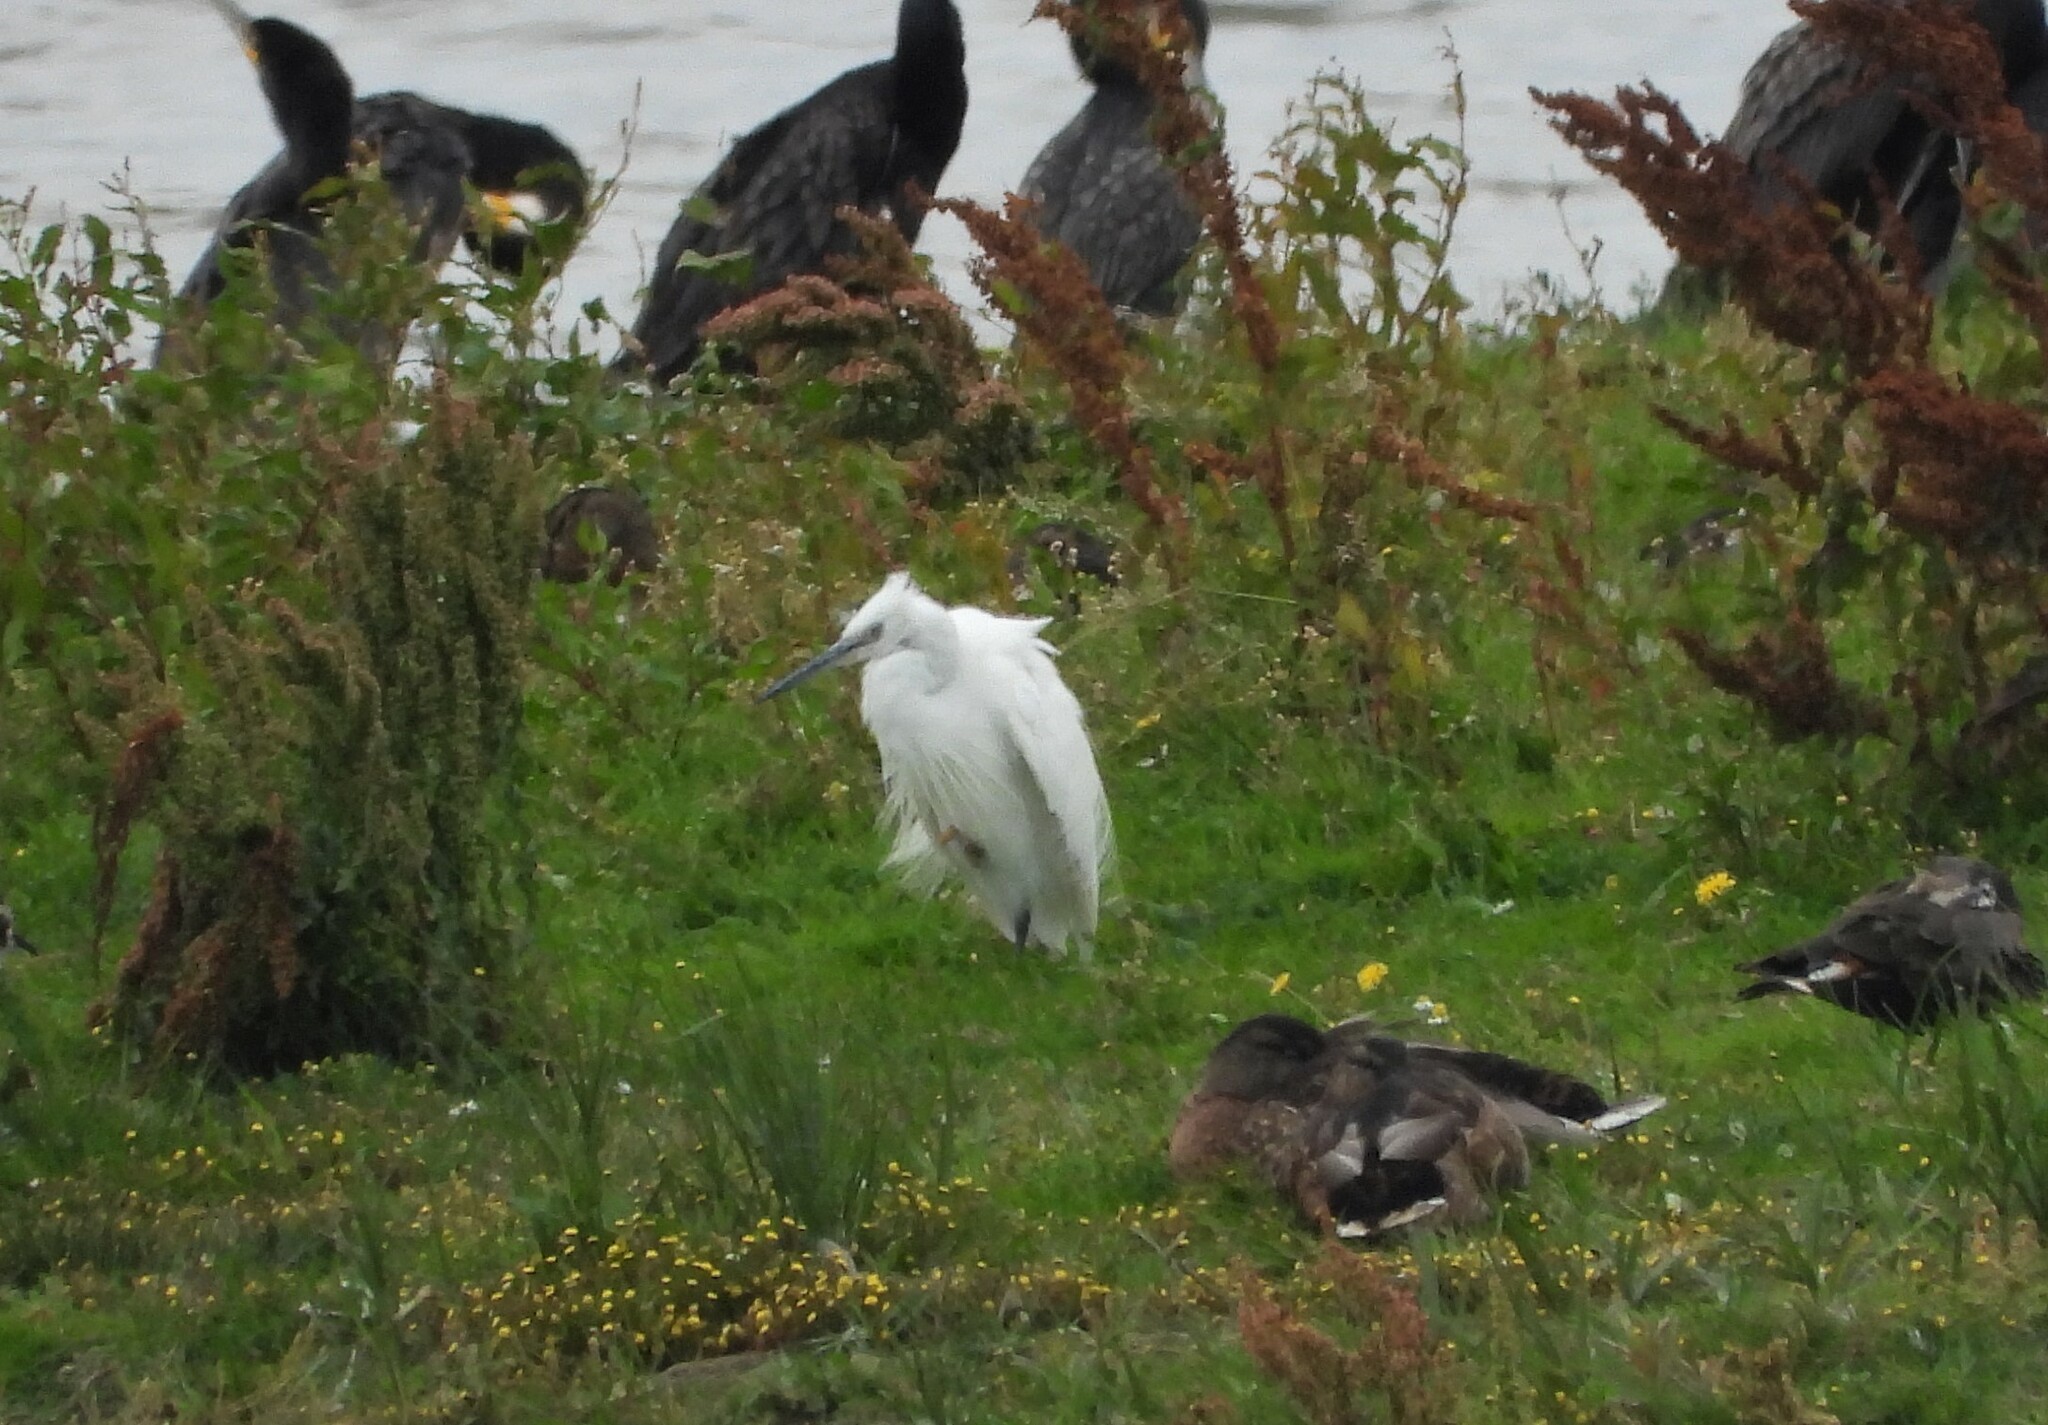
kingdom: Animalia
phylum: Chordata
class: Aves
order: Pelecaniformes
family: Ardeidae
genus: Egretta
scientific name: Egretta garzetta
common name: Little egret
